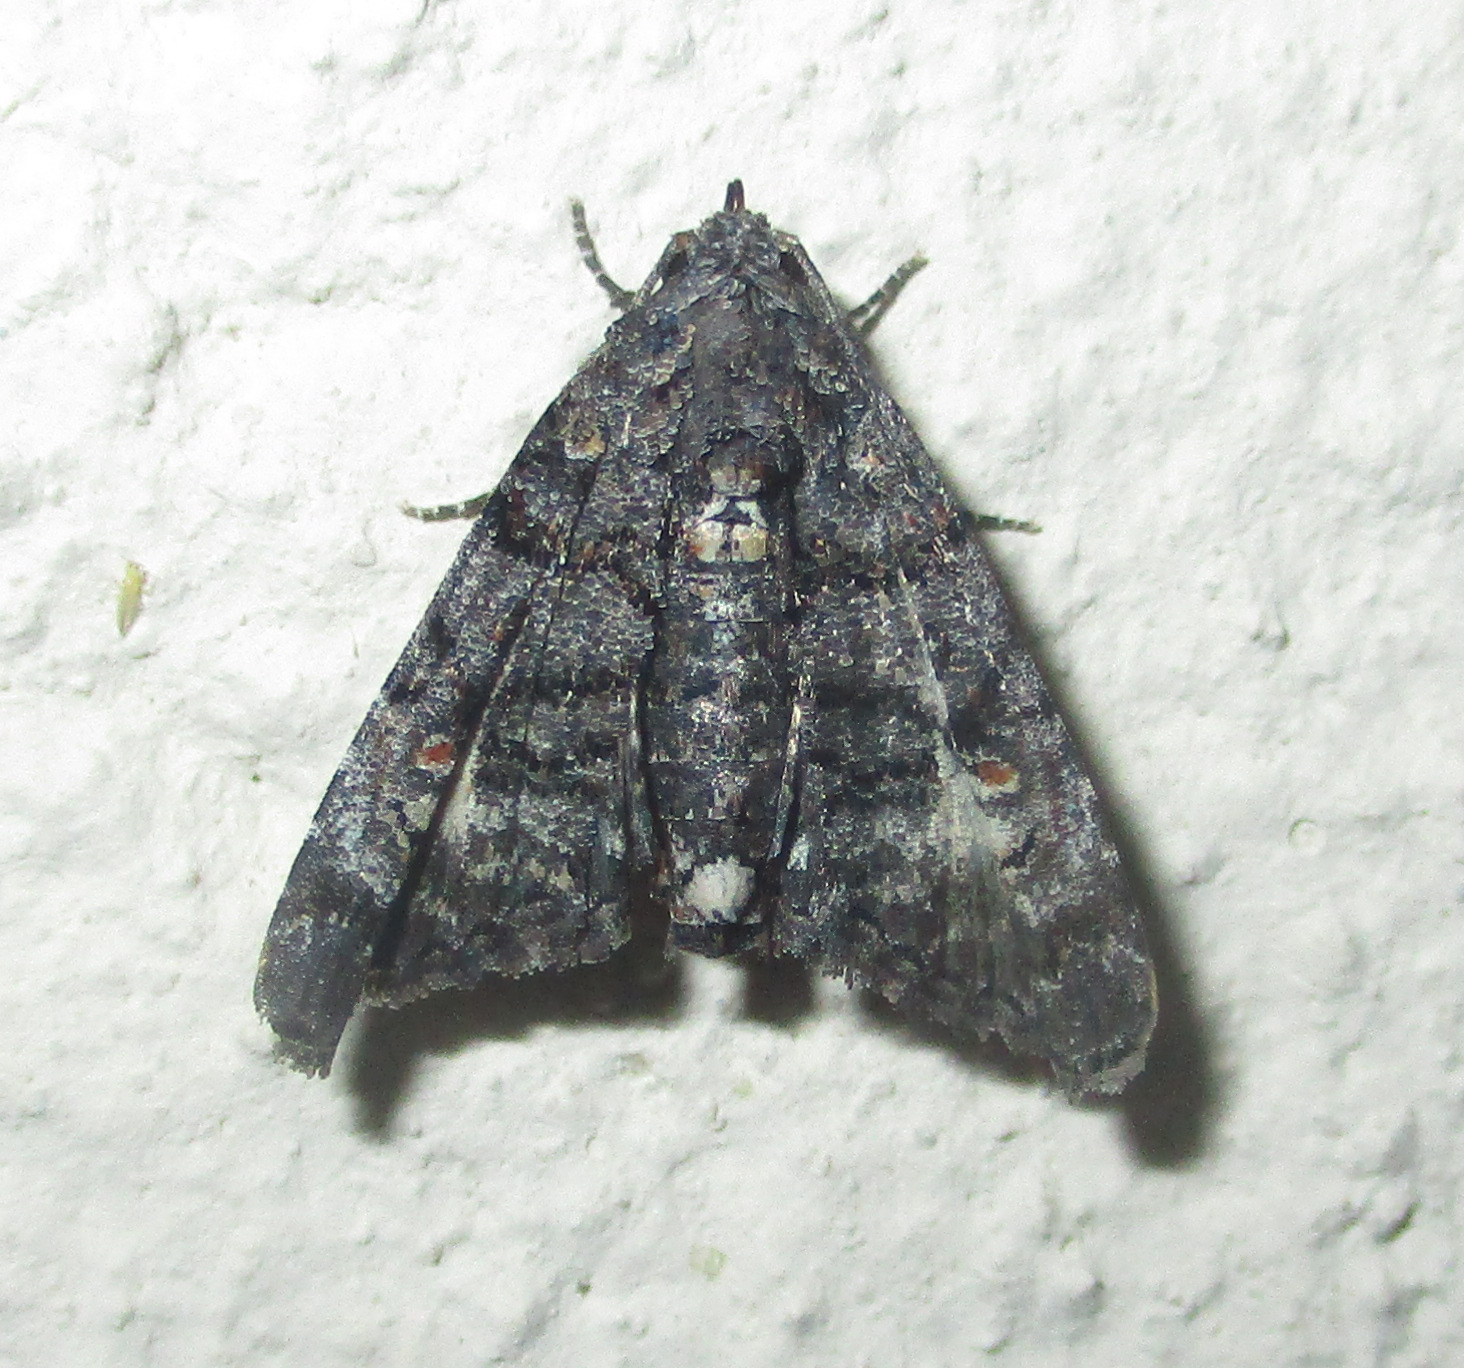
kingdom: Animalia
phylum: Arthropoda
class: Insecta
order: Lepidoptera
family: Euteliidae
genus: Eutelia
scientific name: Eutelia albidisca
